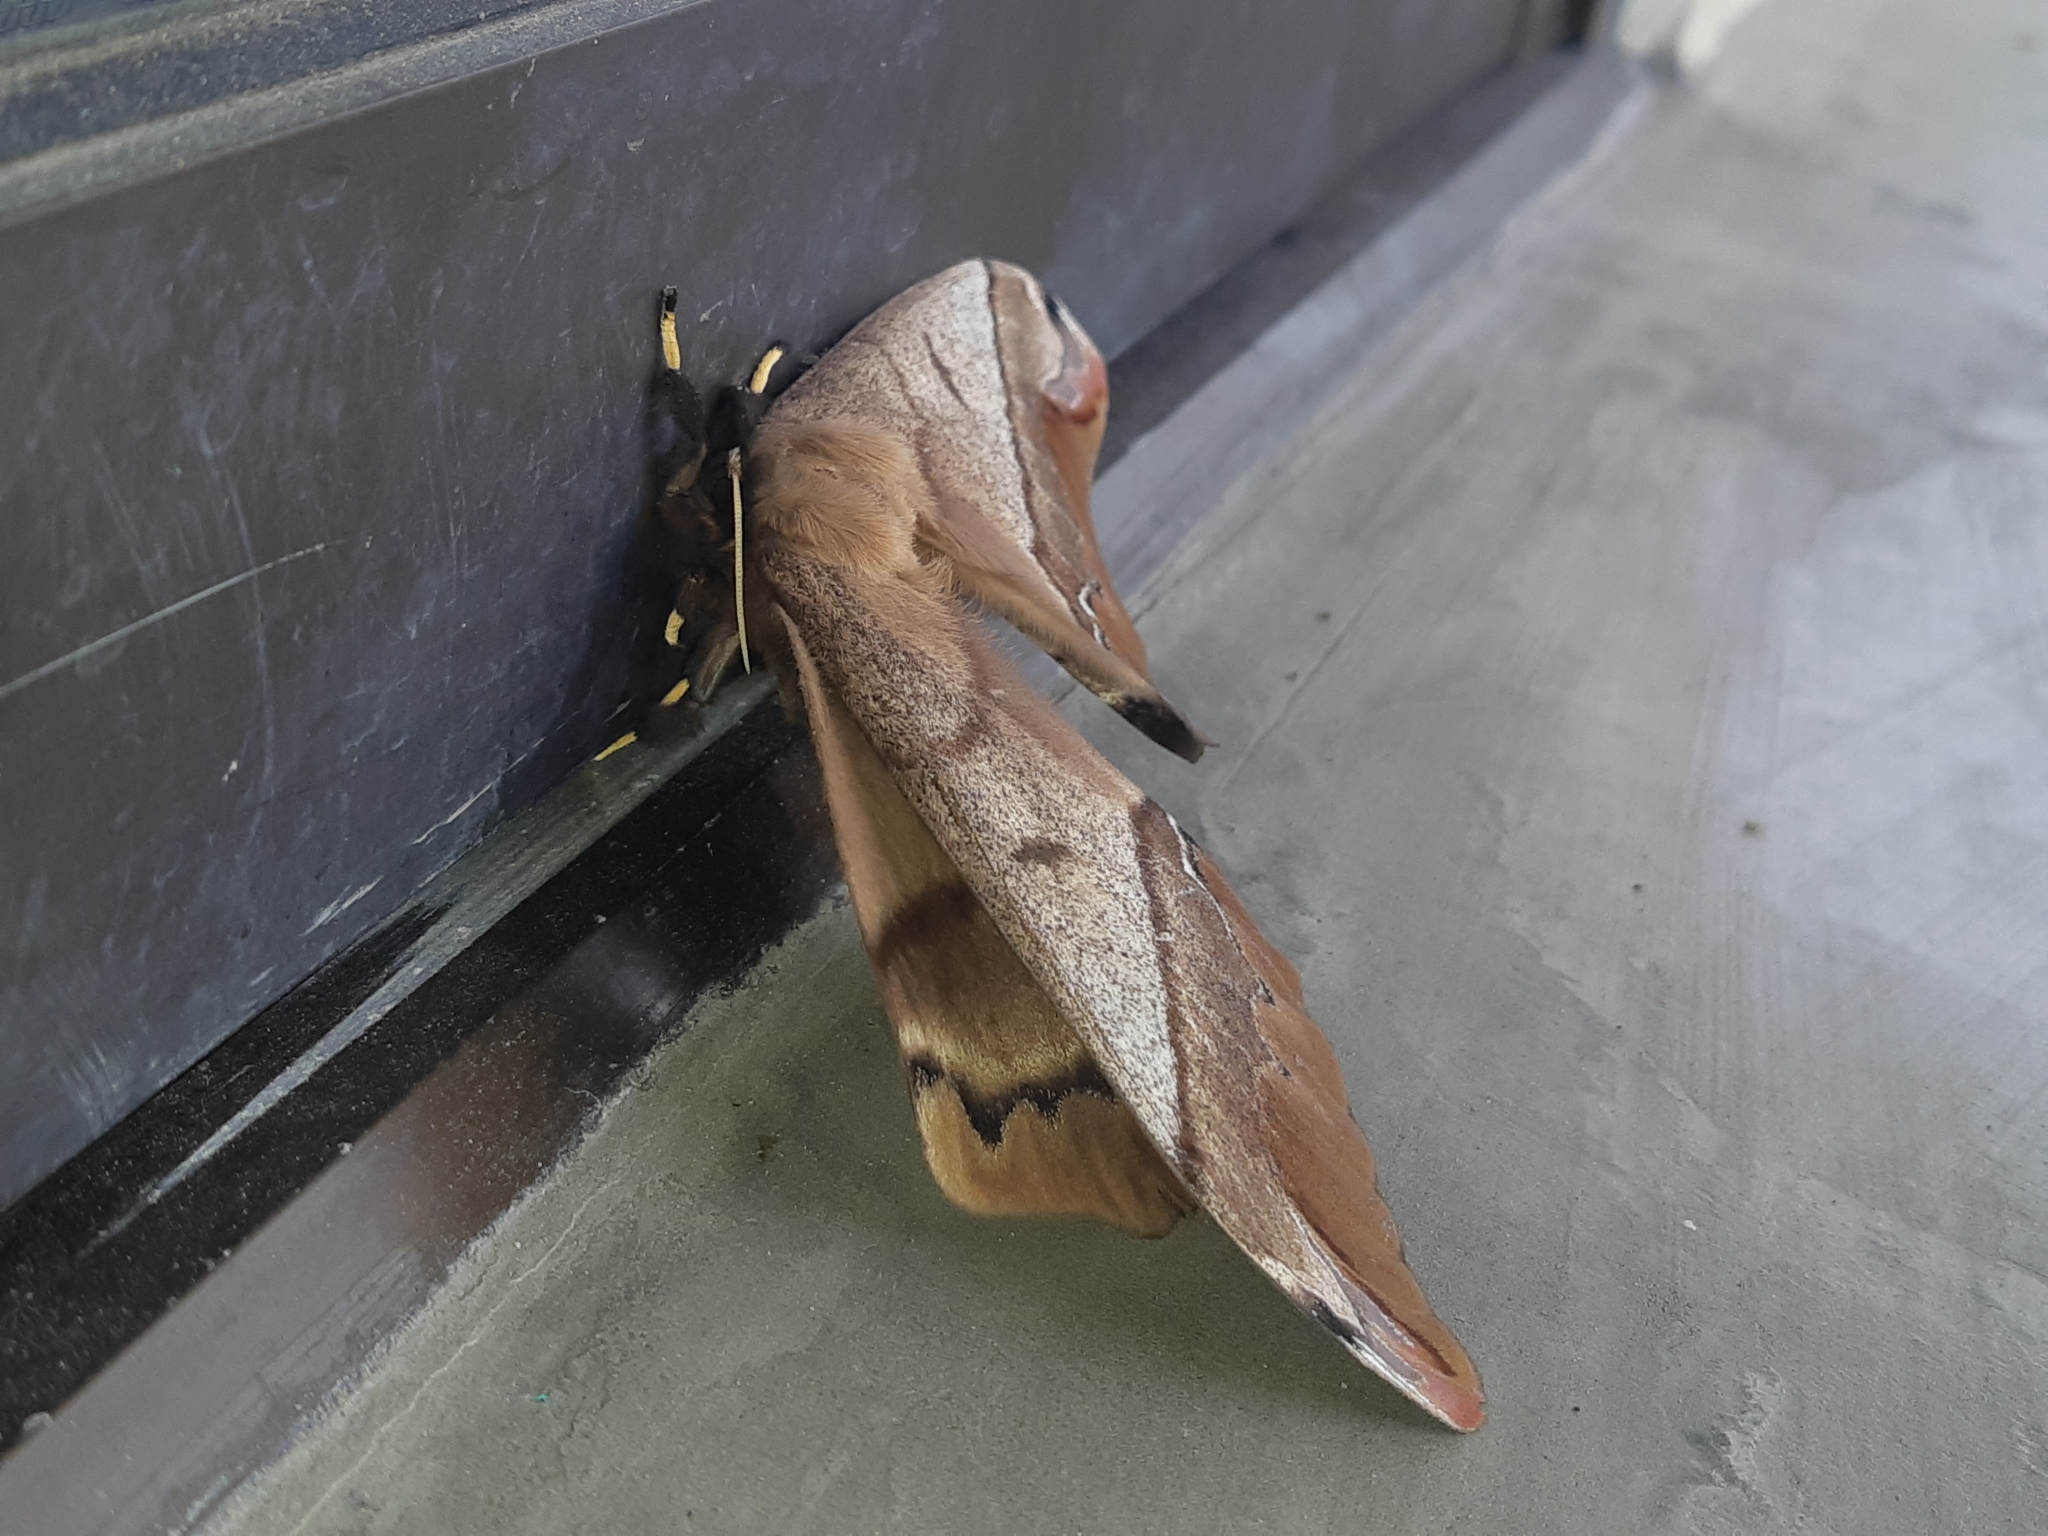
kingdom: Animalia
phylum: Arthropoda
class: Insecta
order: Lepidoptera
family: Saturniidae
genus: Arsenura
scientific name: Arsenura armida
